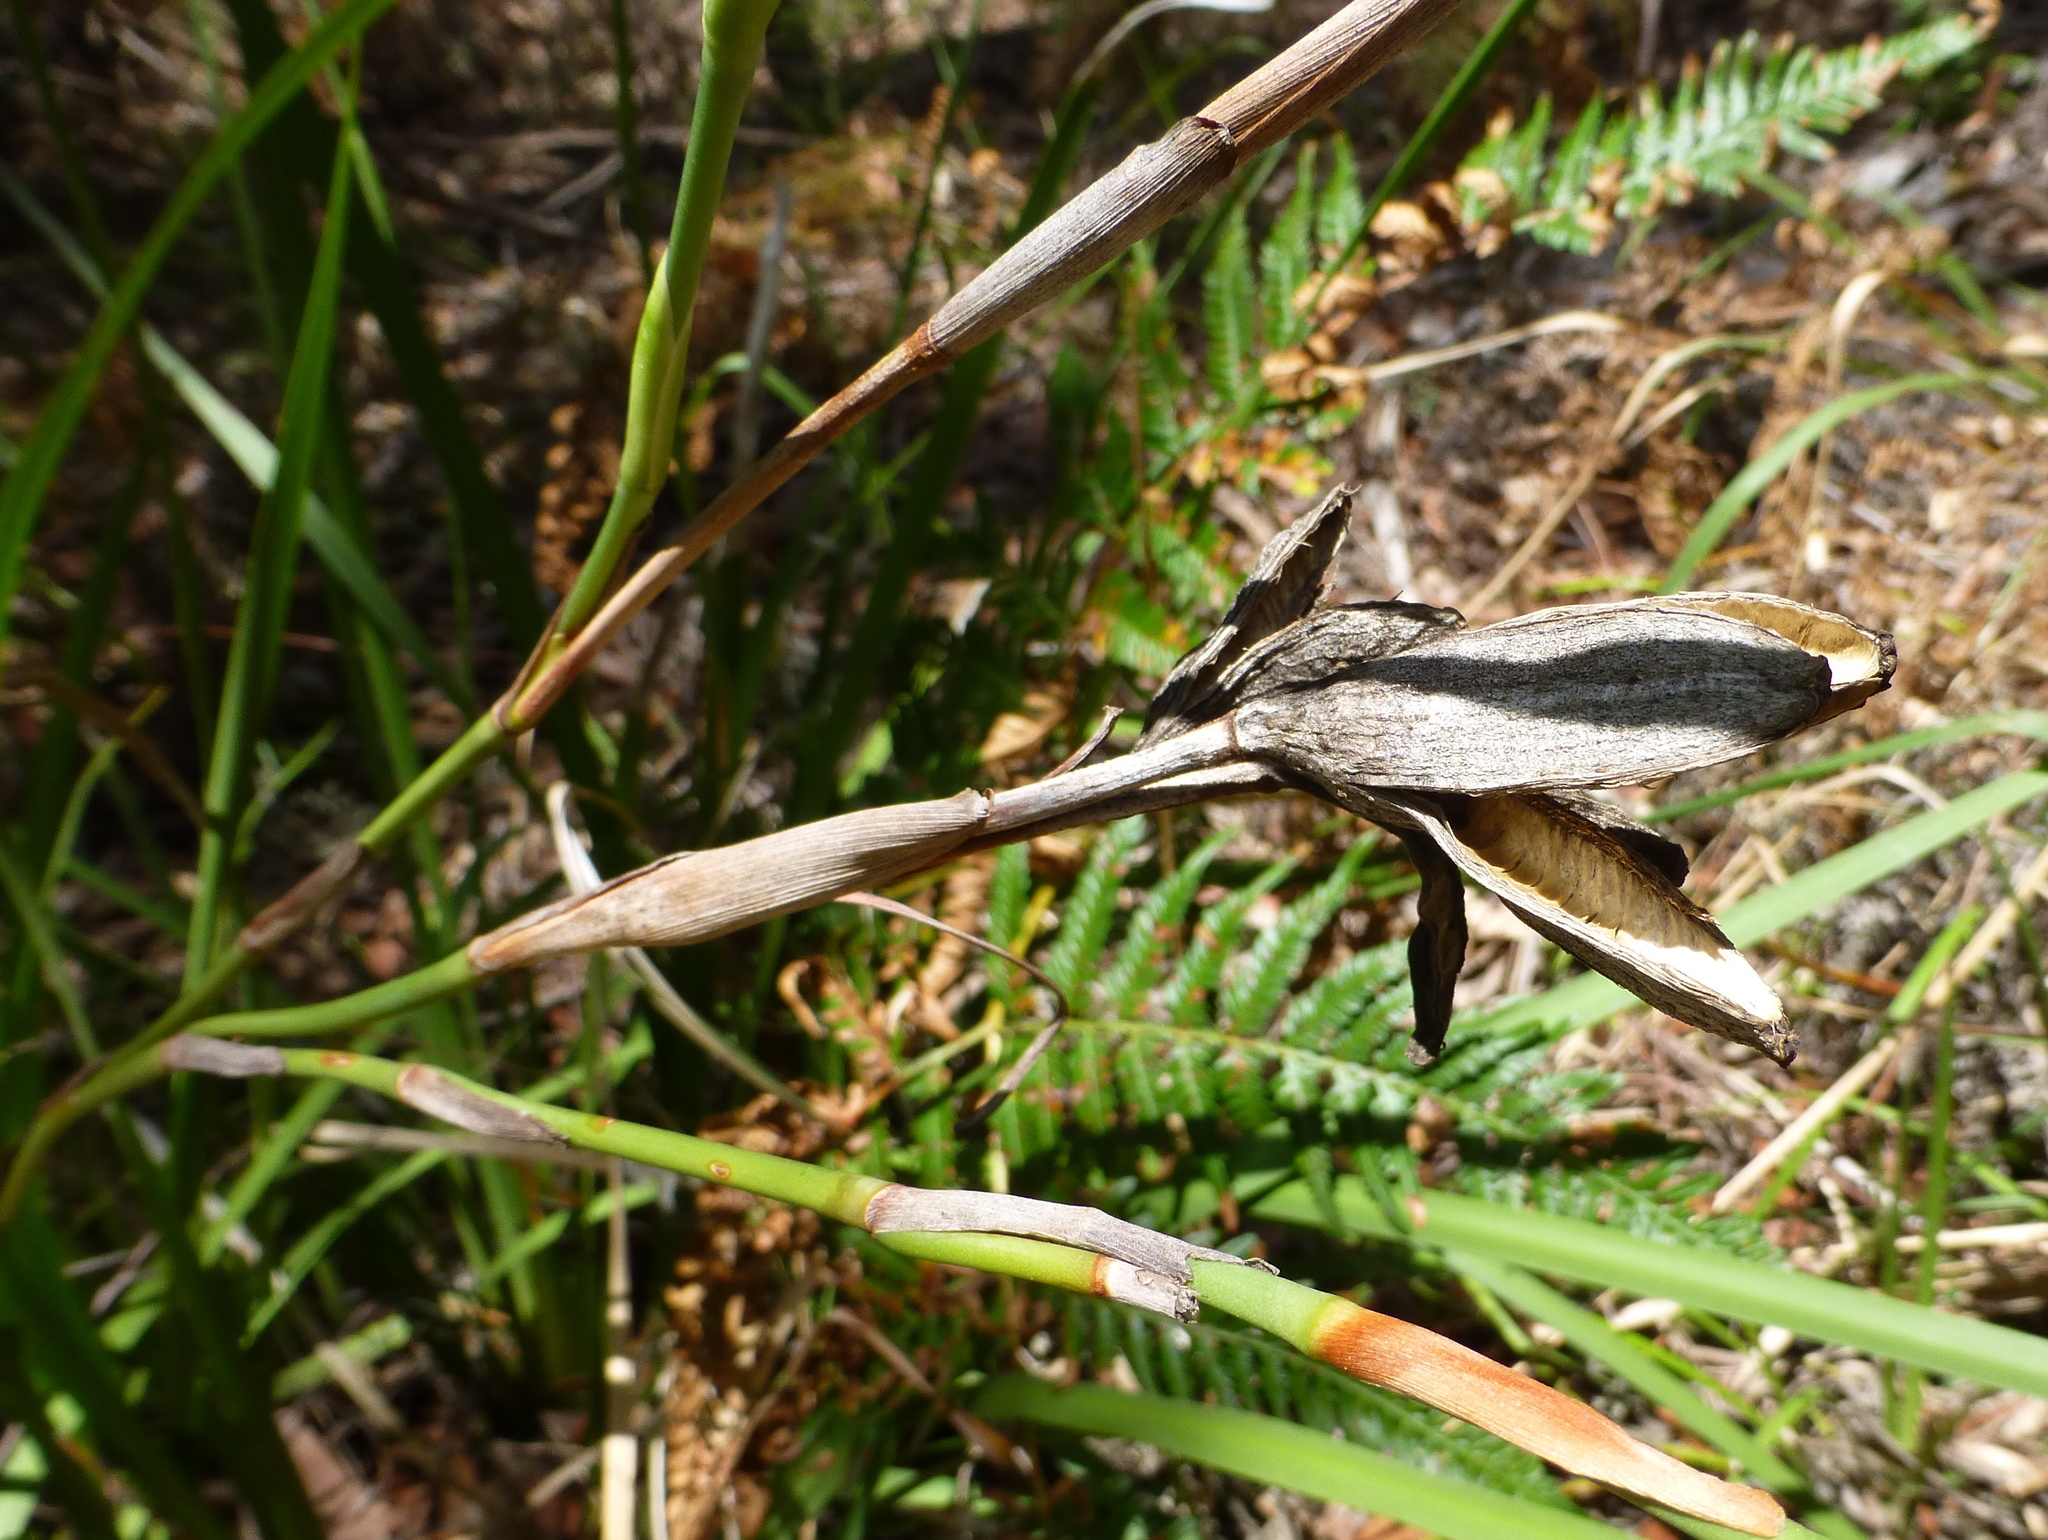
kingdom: Plantae
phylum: Tracheophyta
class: Liliopsida
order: Asparagales
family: Iridaceae
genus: Dietes
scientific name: Dietes grandiflora
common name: Wild iris
